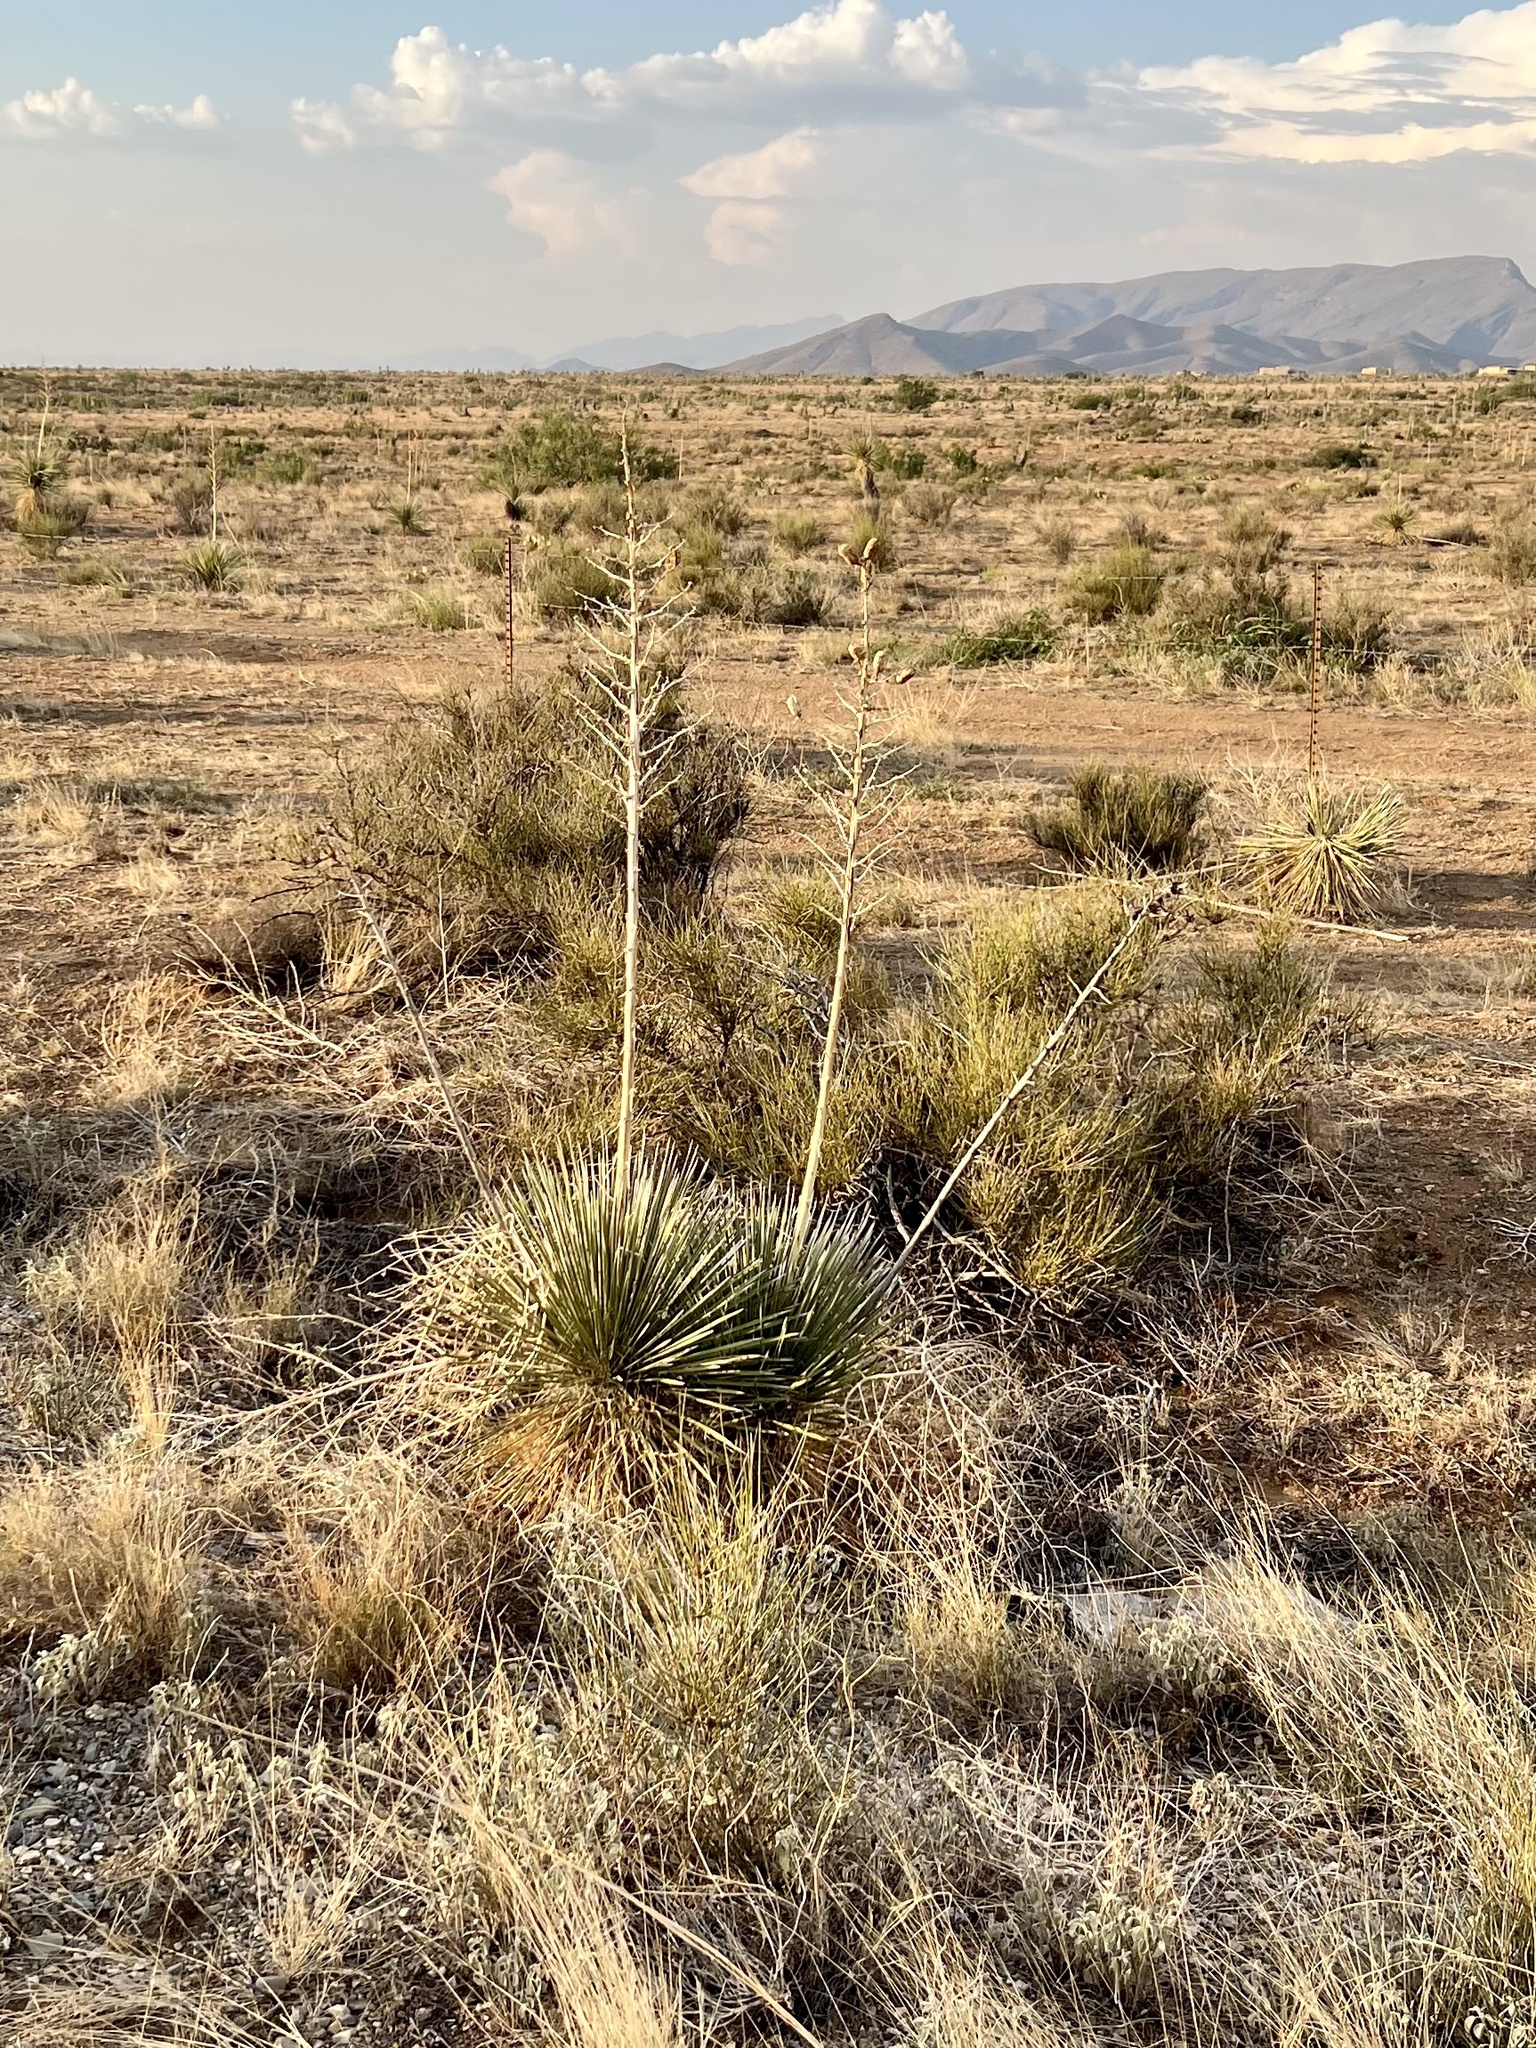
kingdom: Plantae
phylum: Tracheophyta
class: Liliopsida
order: Asparagales
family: Asparagaceae
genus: Yucca
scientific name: Yucca elata
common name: Palmella
